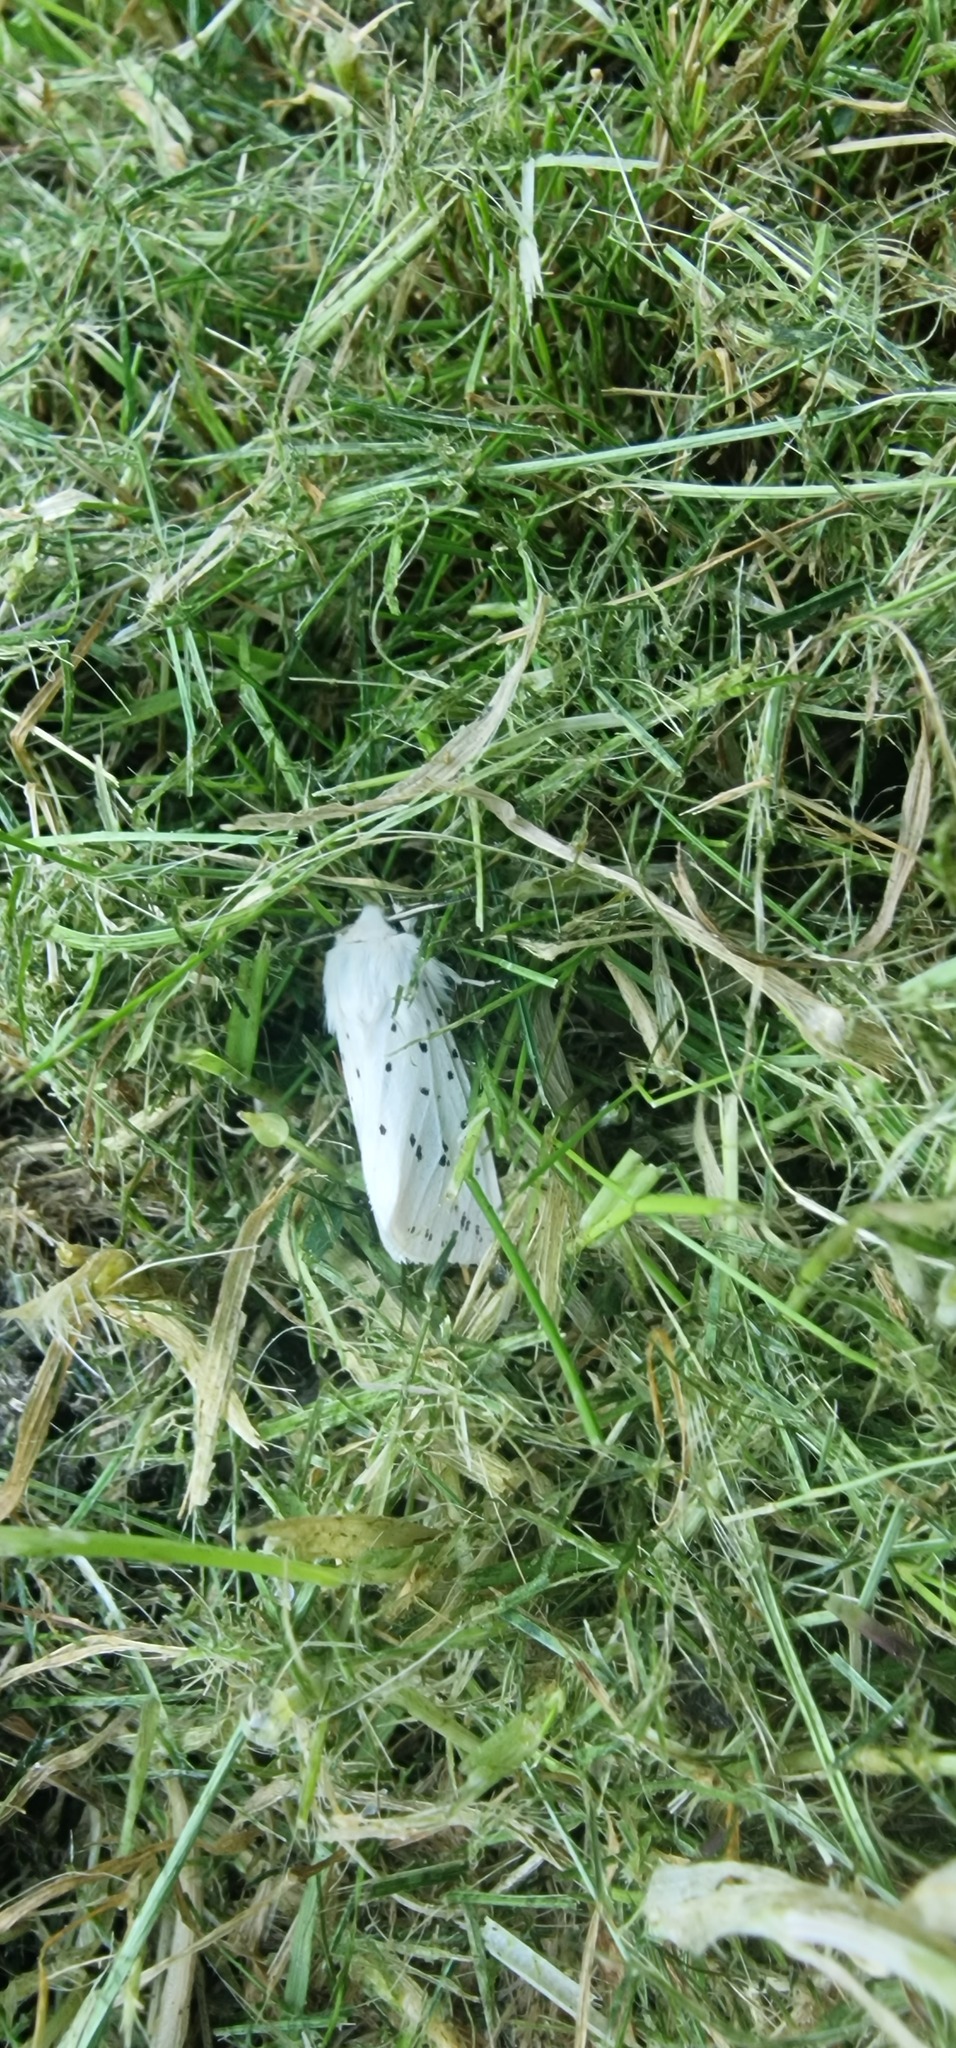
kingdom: Animalia
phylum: Arthropoda
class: Insecta
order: Lepidoptera
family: Erebidae
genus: Spilosoma
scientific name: Spilosoma lubricipeda
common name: White ermine
